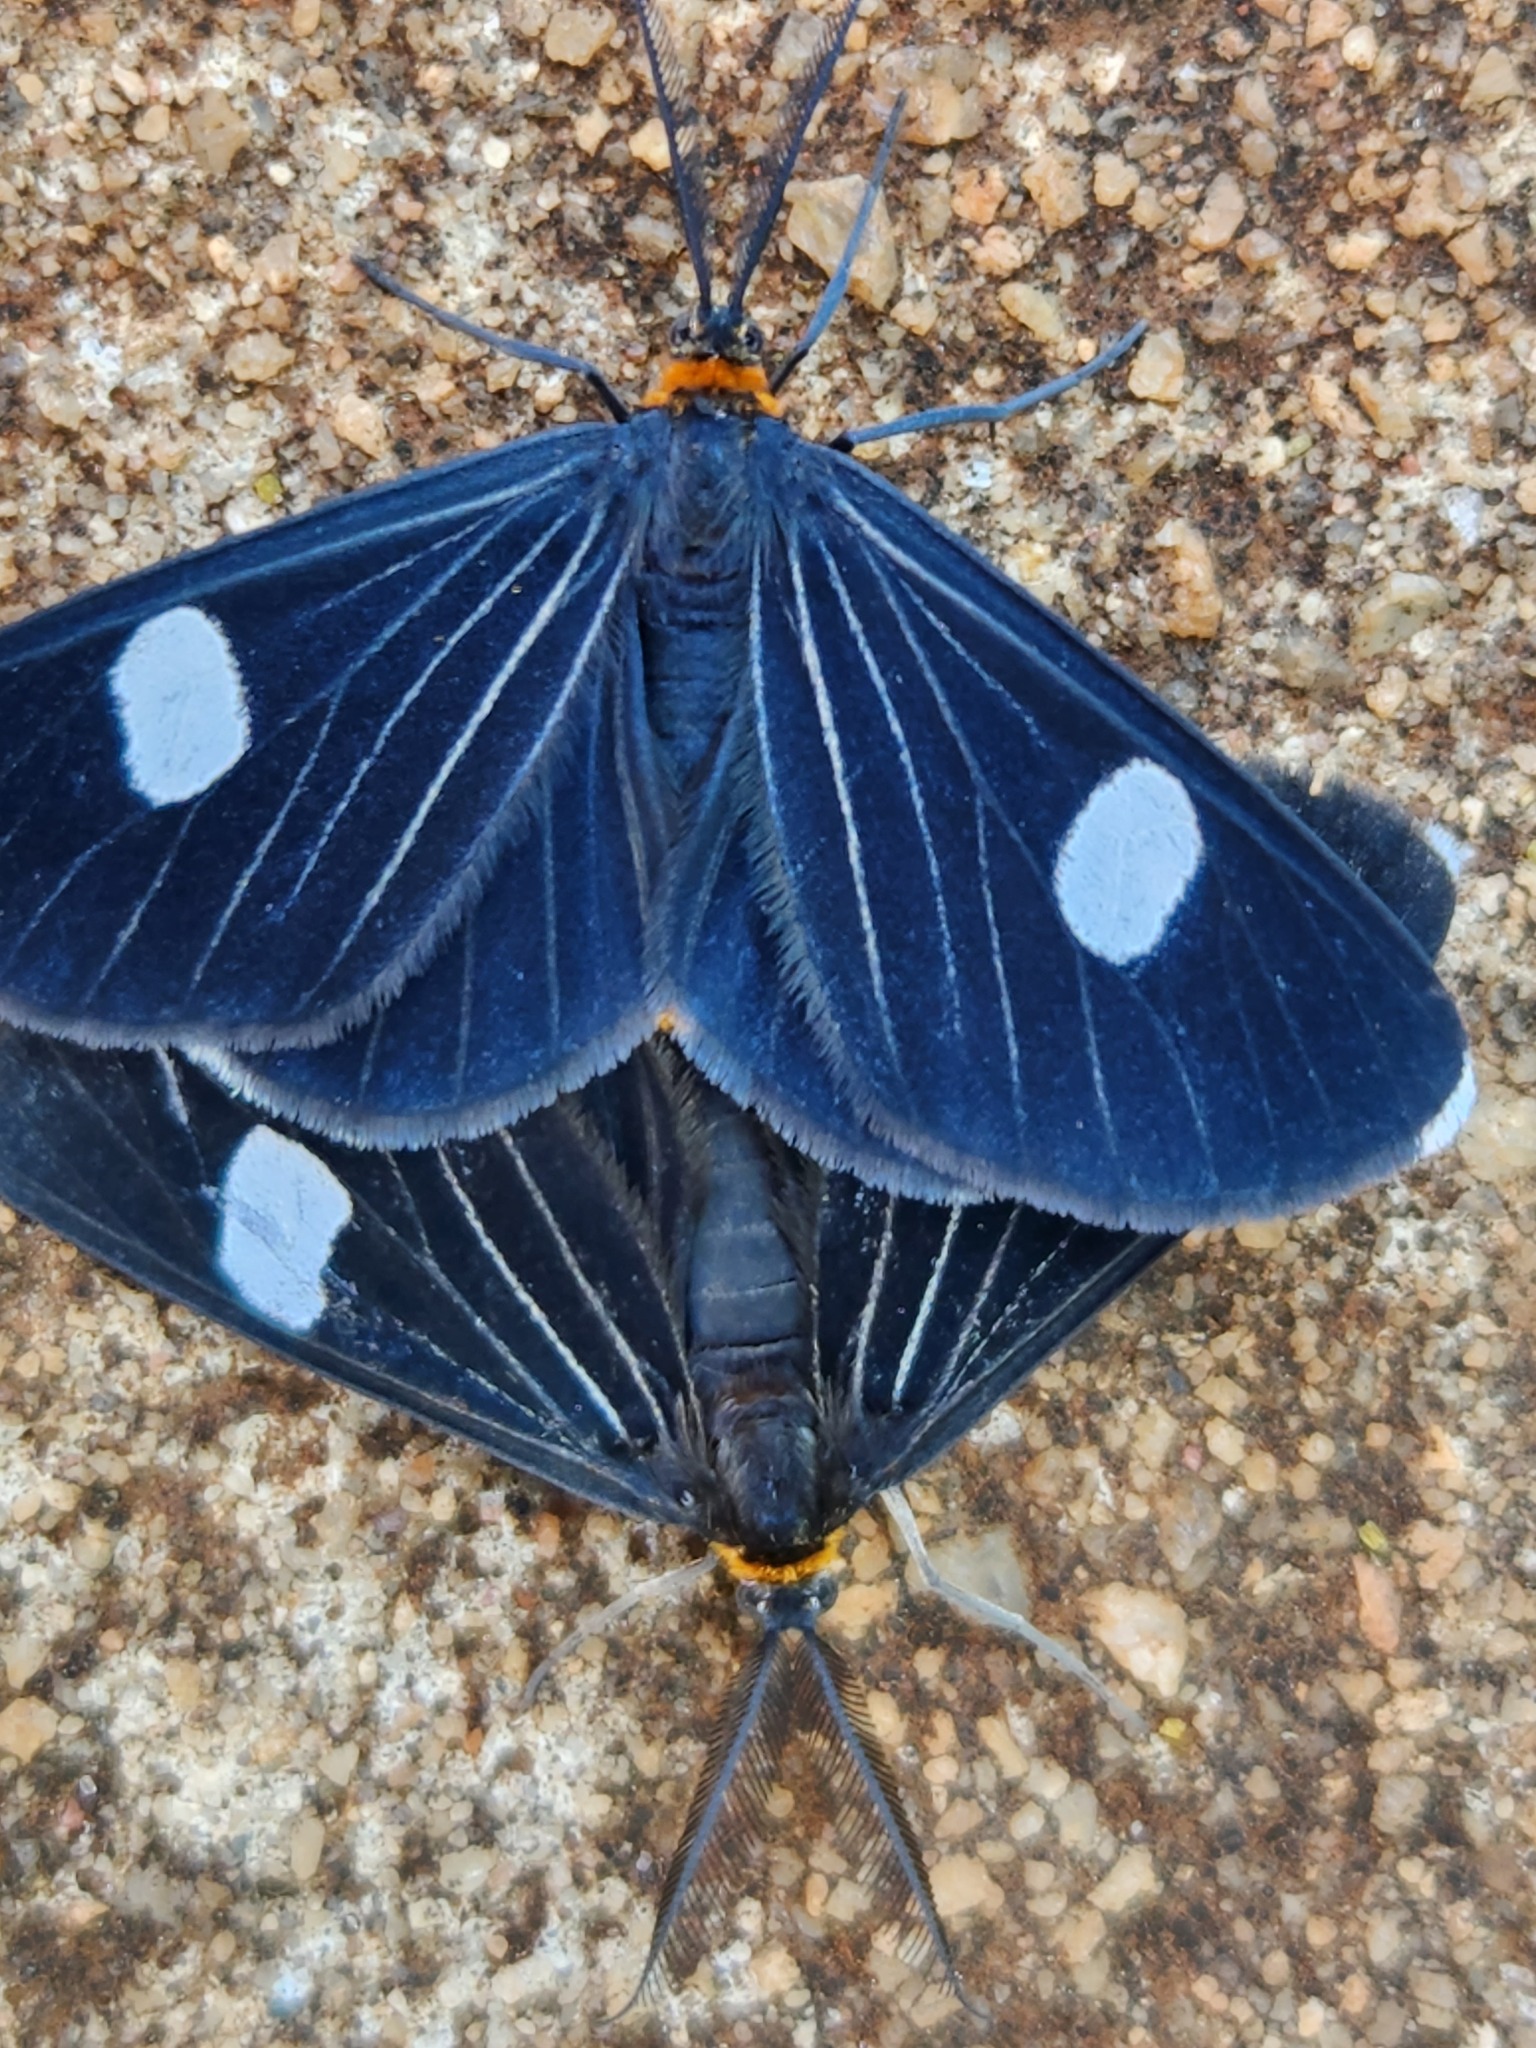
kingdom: Animalia
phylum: Arthropoda
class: Insecta
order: Lepidoptera
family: Geometridae
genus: Melanchroia
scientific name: Melanchroia aterea
